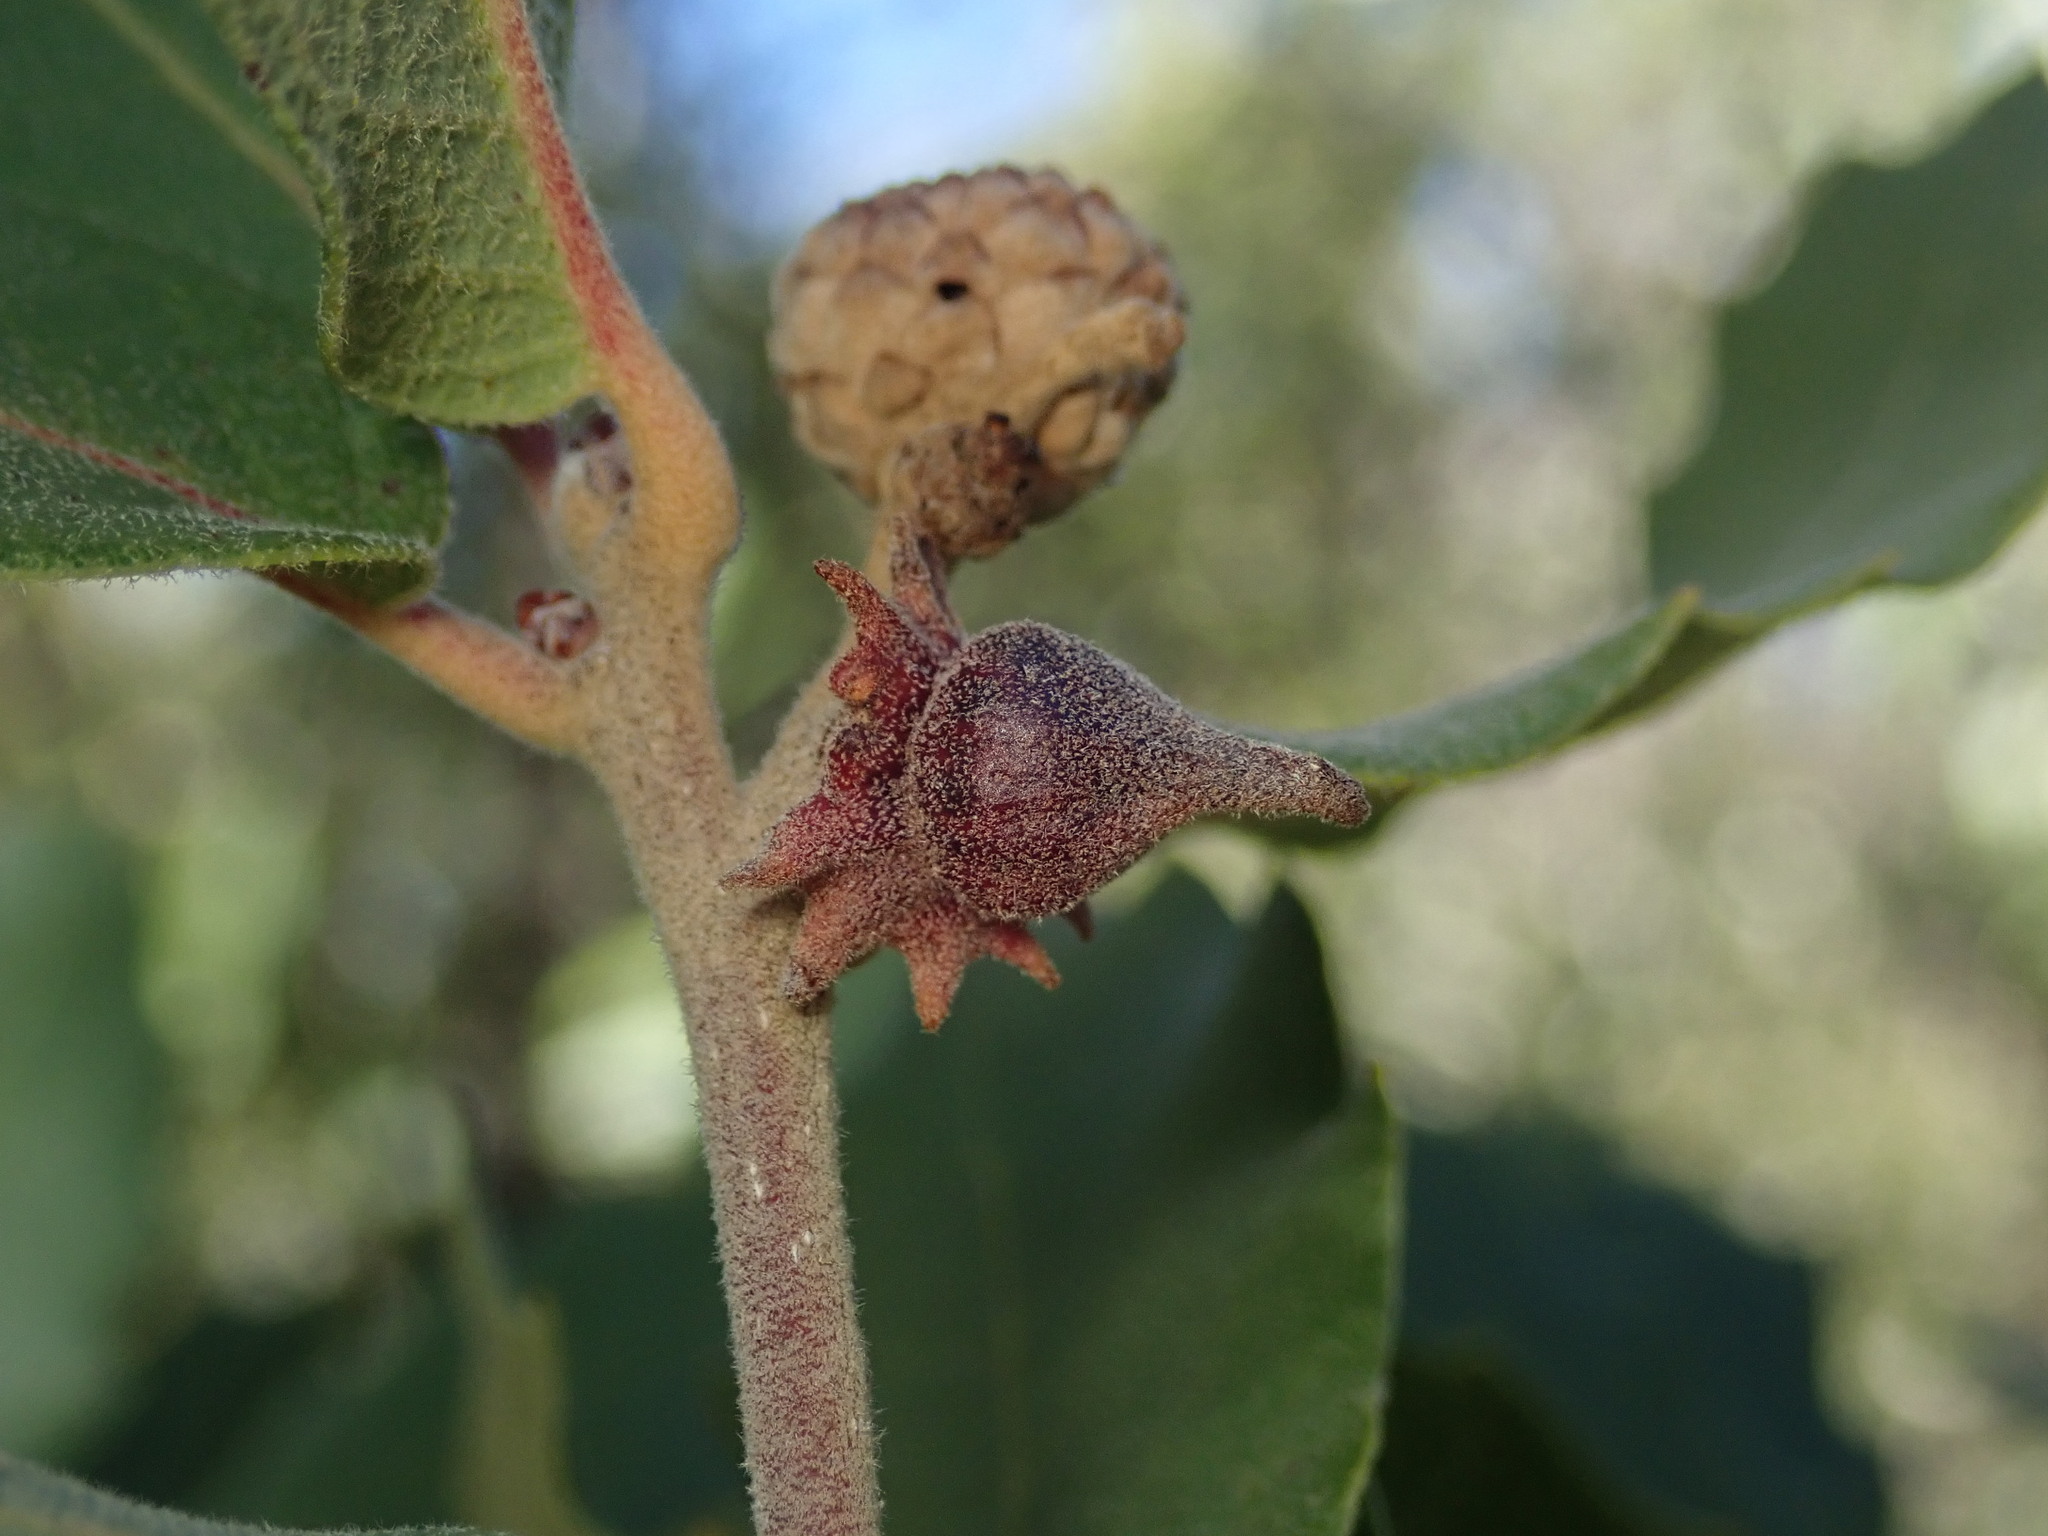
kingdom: Animalia
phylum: Arthropoda
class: Insecta
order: Hymenoptera
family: Cynipidae
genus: Disholcaspis
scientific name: Disholcaspis
